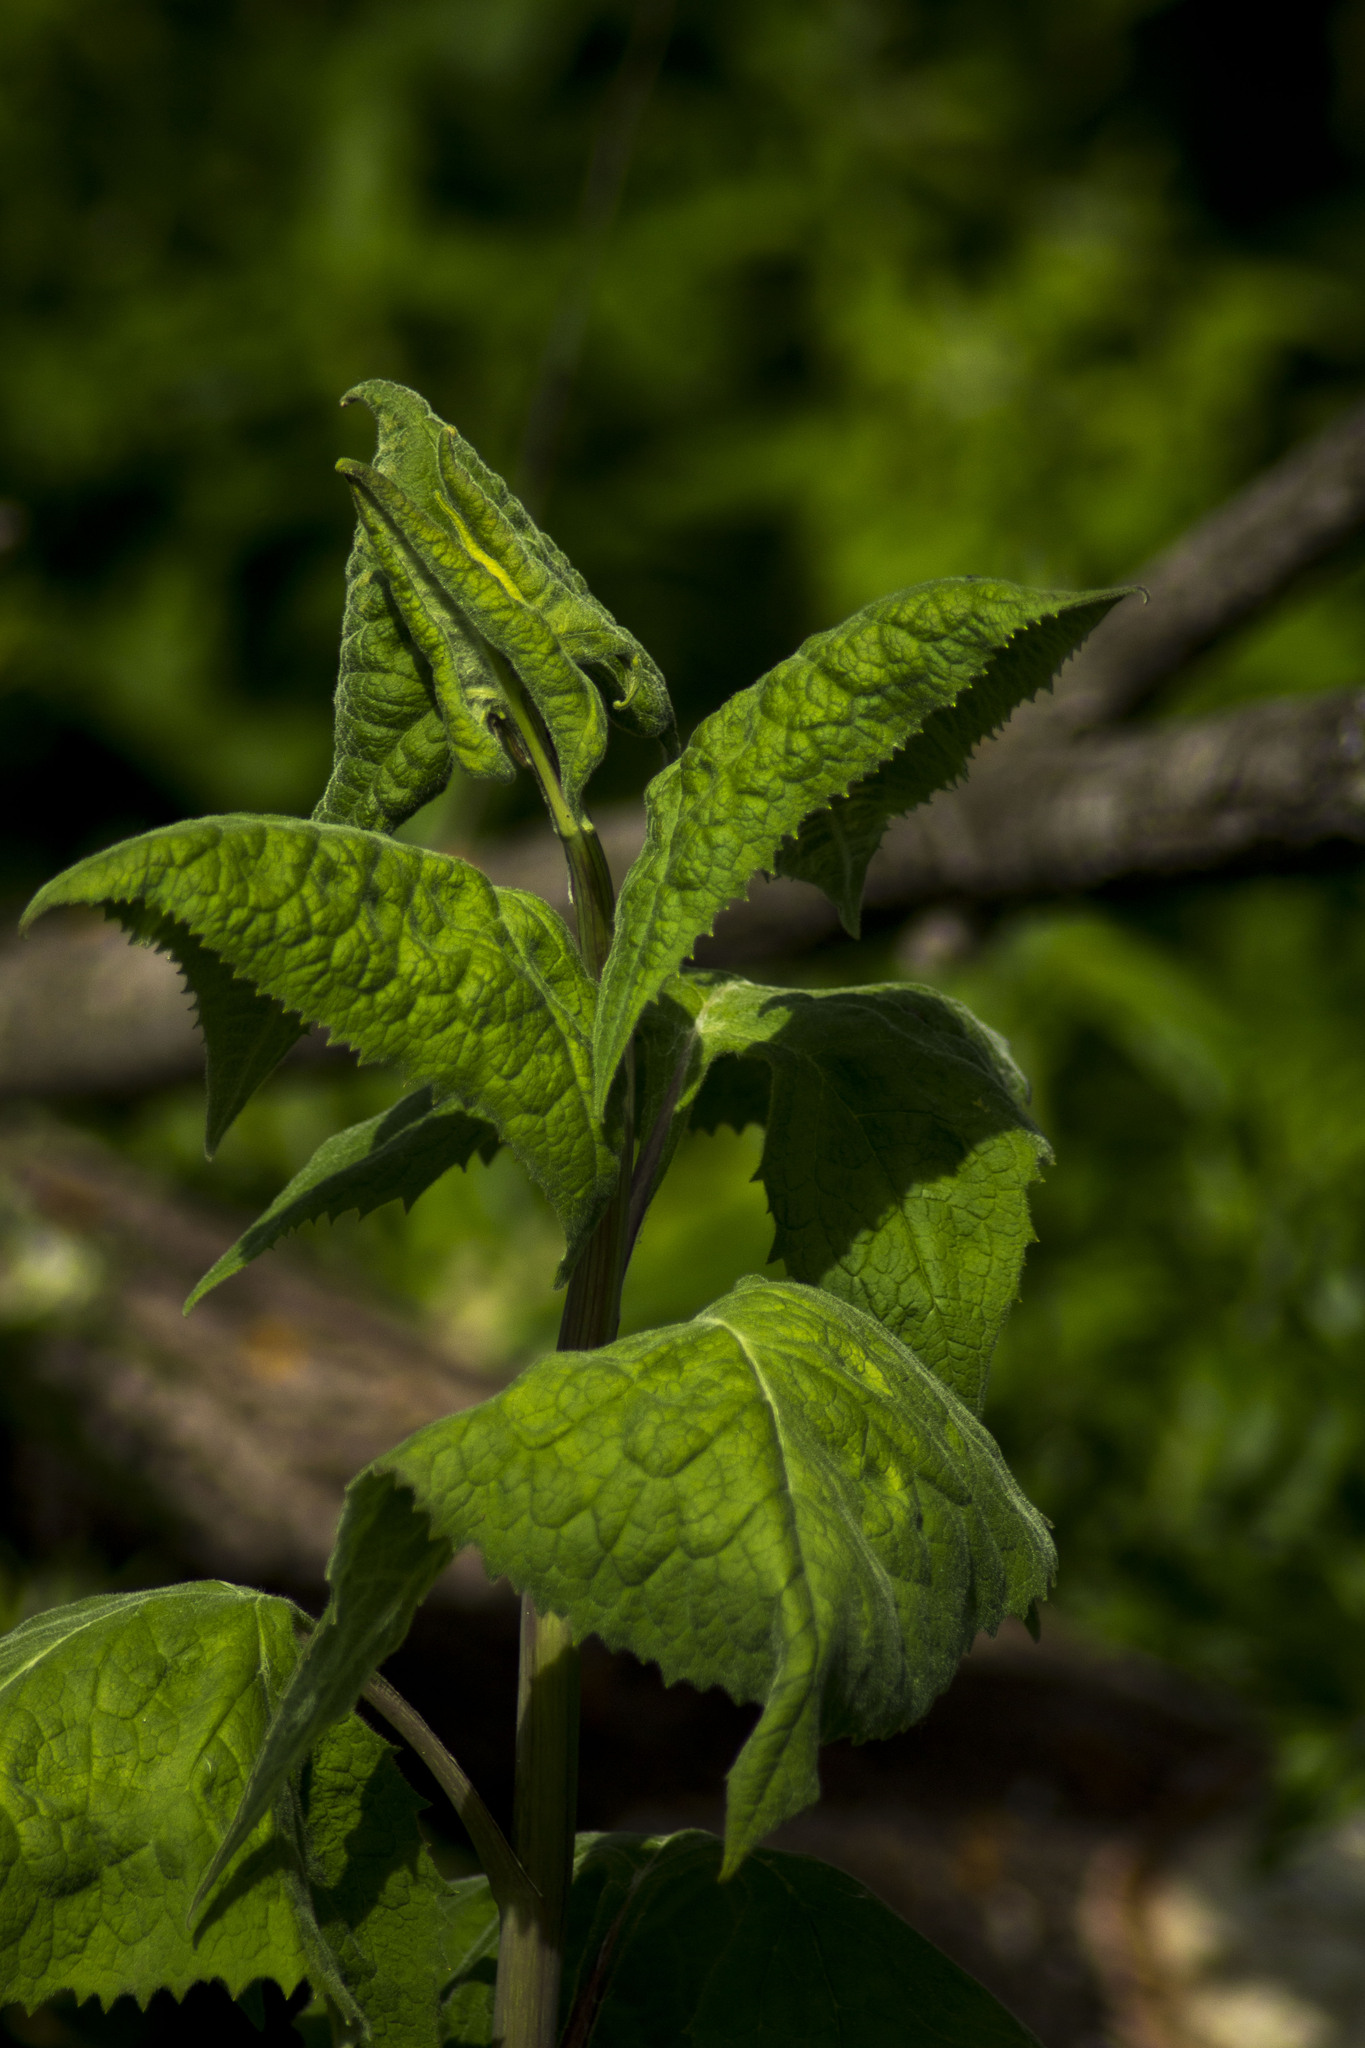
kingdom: Plantae
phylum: Tracheophyta
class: Magnoliopsida
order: Asterales
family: Asteraceae
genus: Parasenecio
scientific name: Parasenecio hastatus
